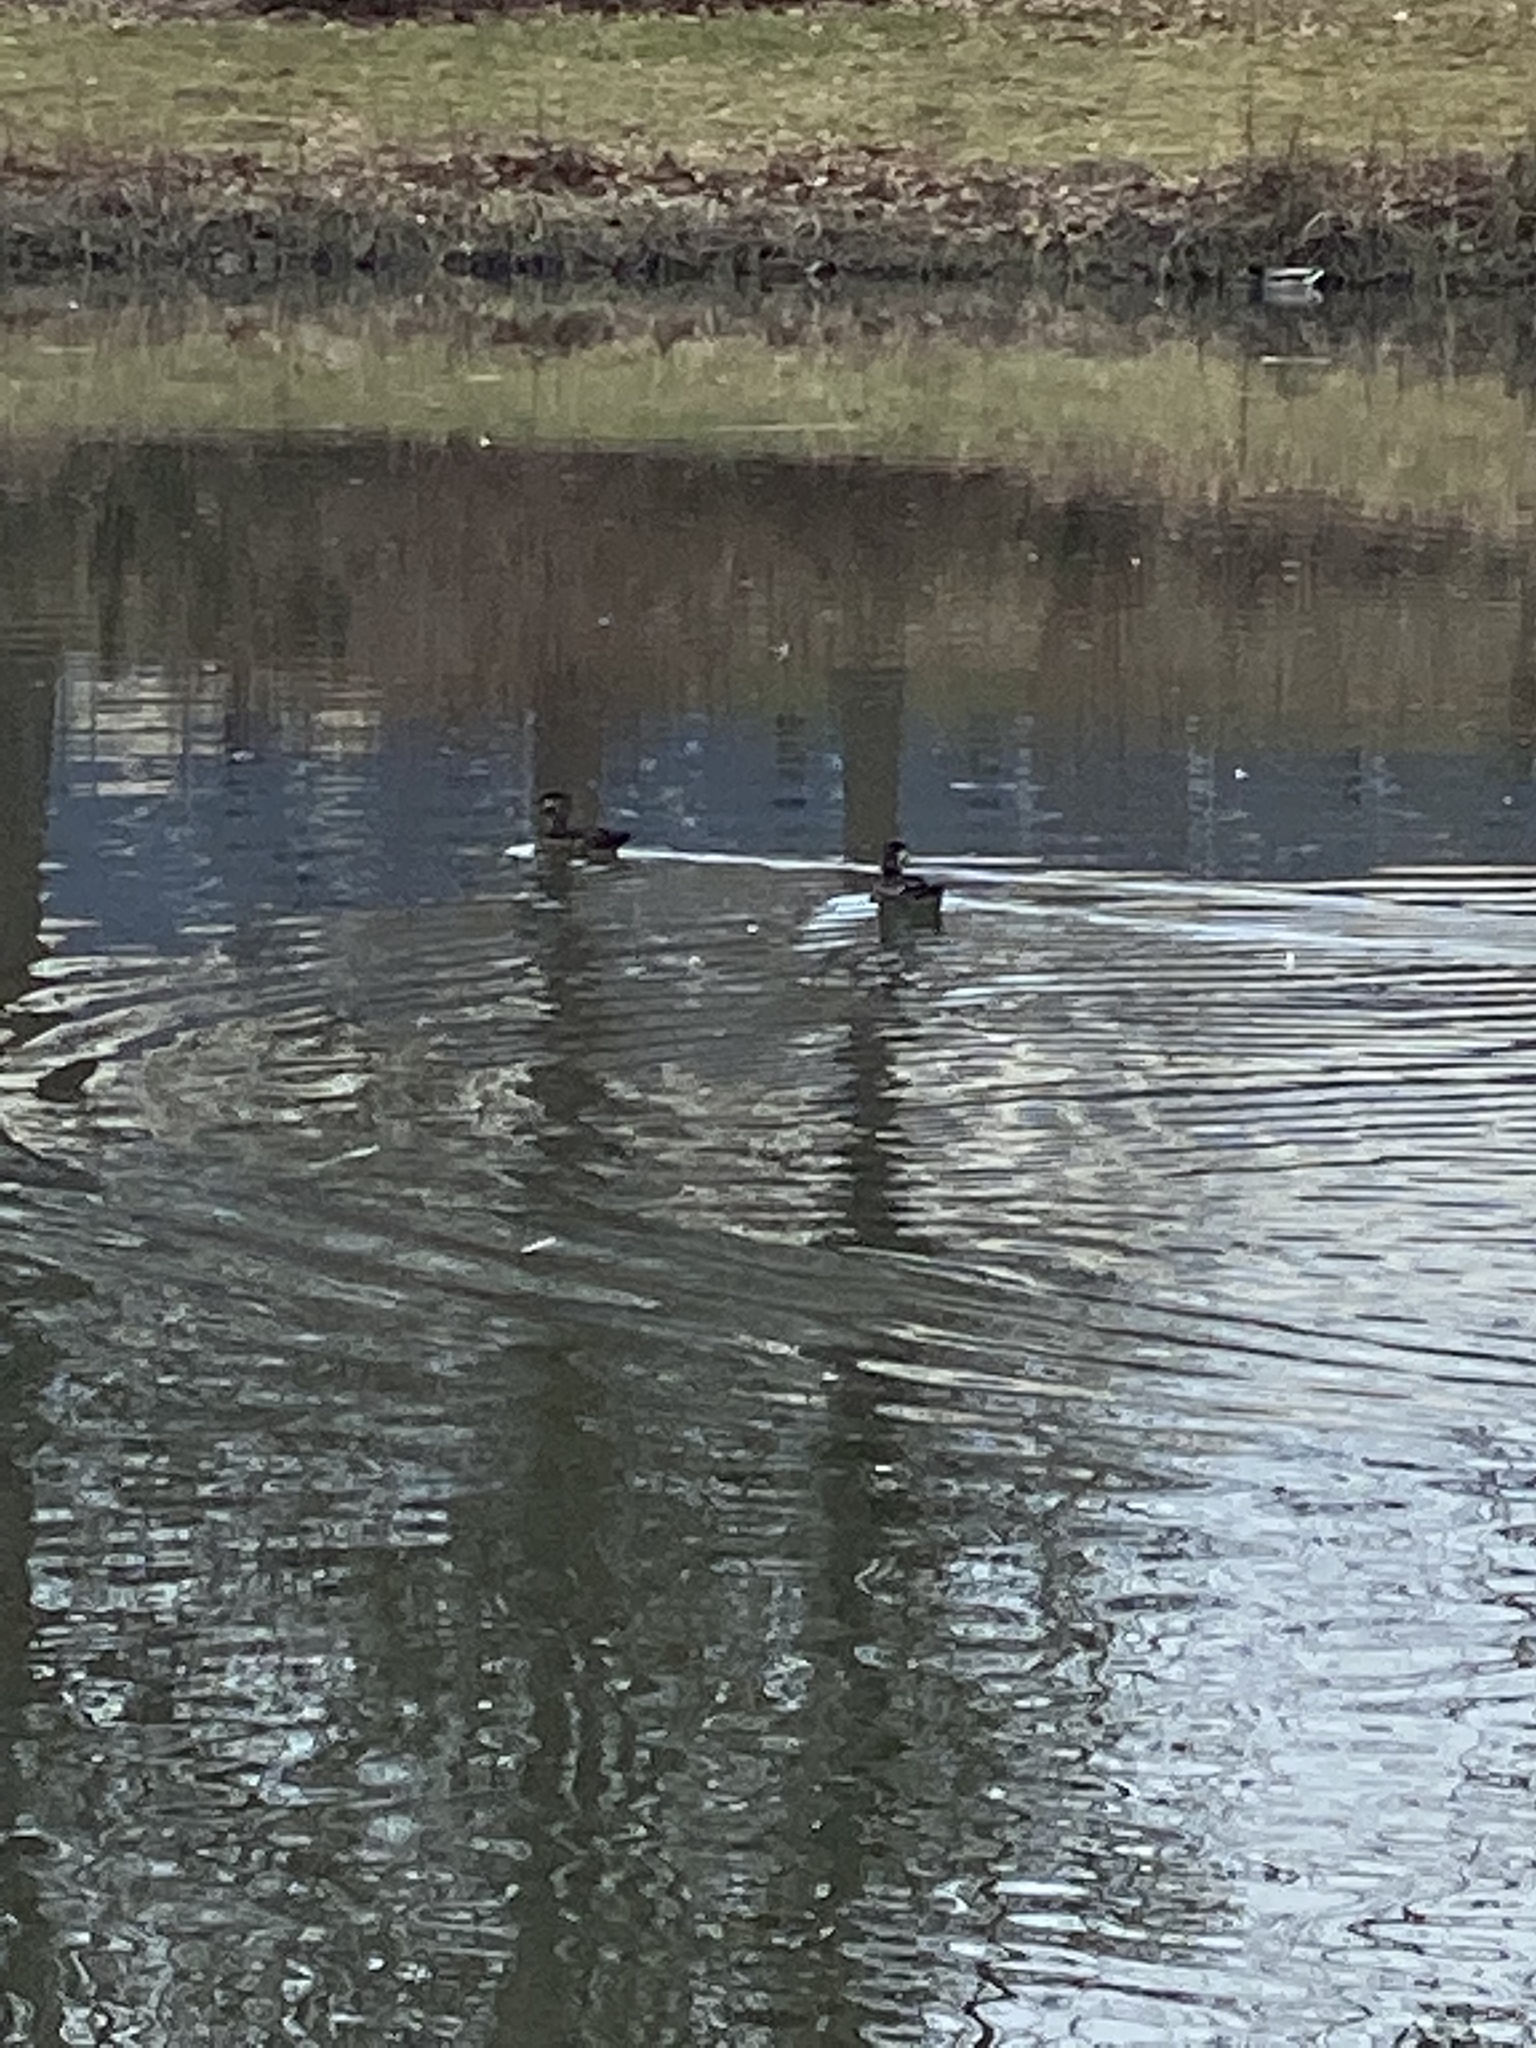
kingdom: Animalia
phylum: Chordata
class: Aves
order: Anseriformes
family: Anatidae
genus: Aix
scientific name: Aix sponsa
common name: Wood duck
